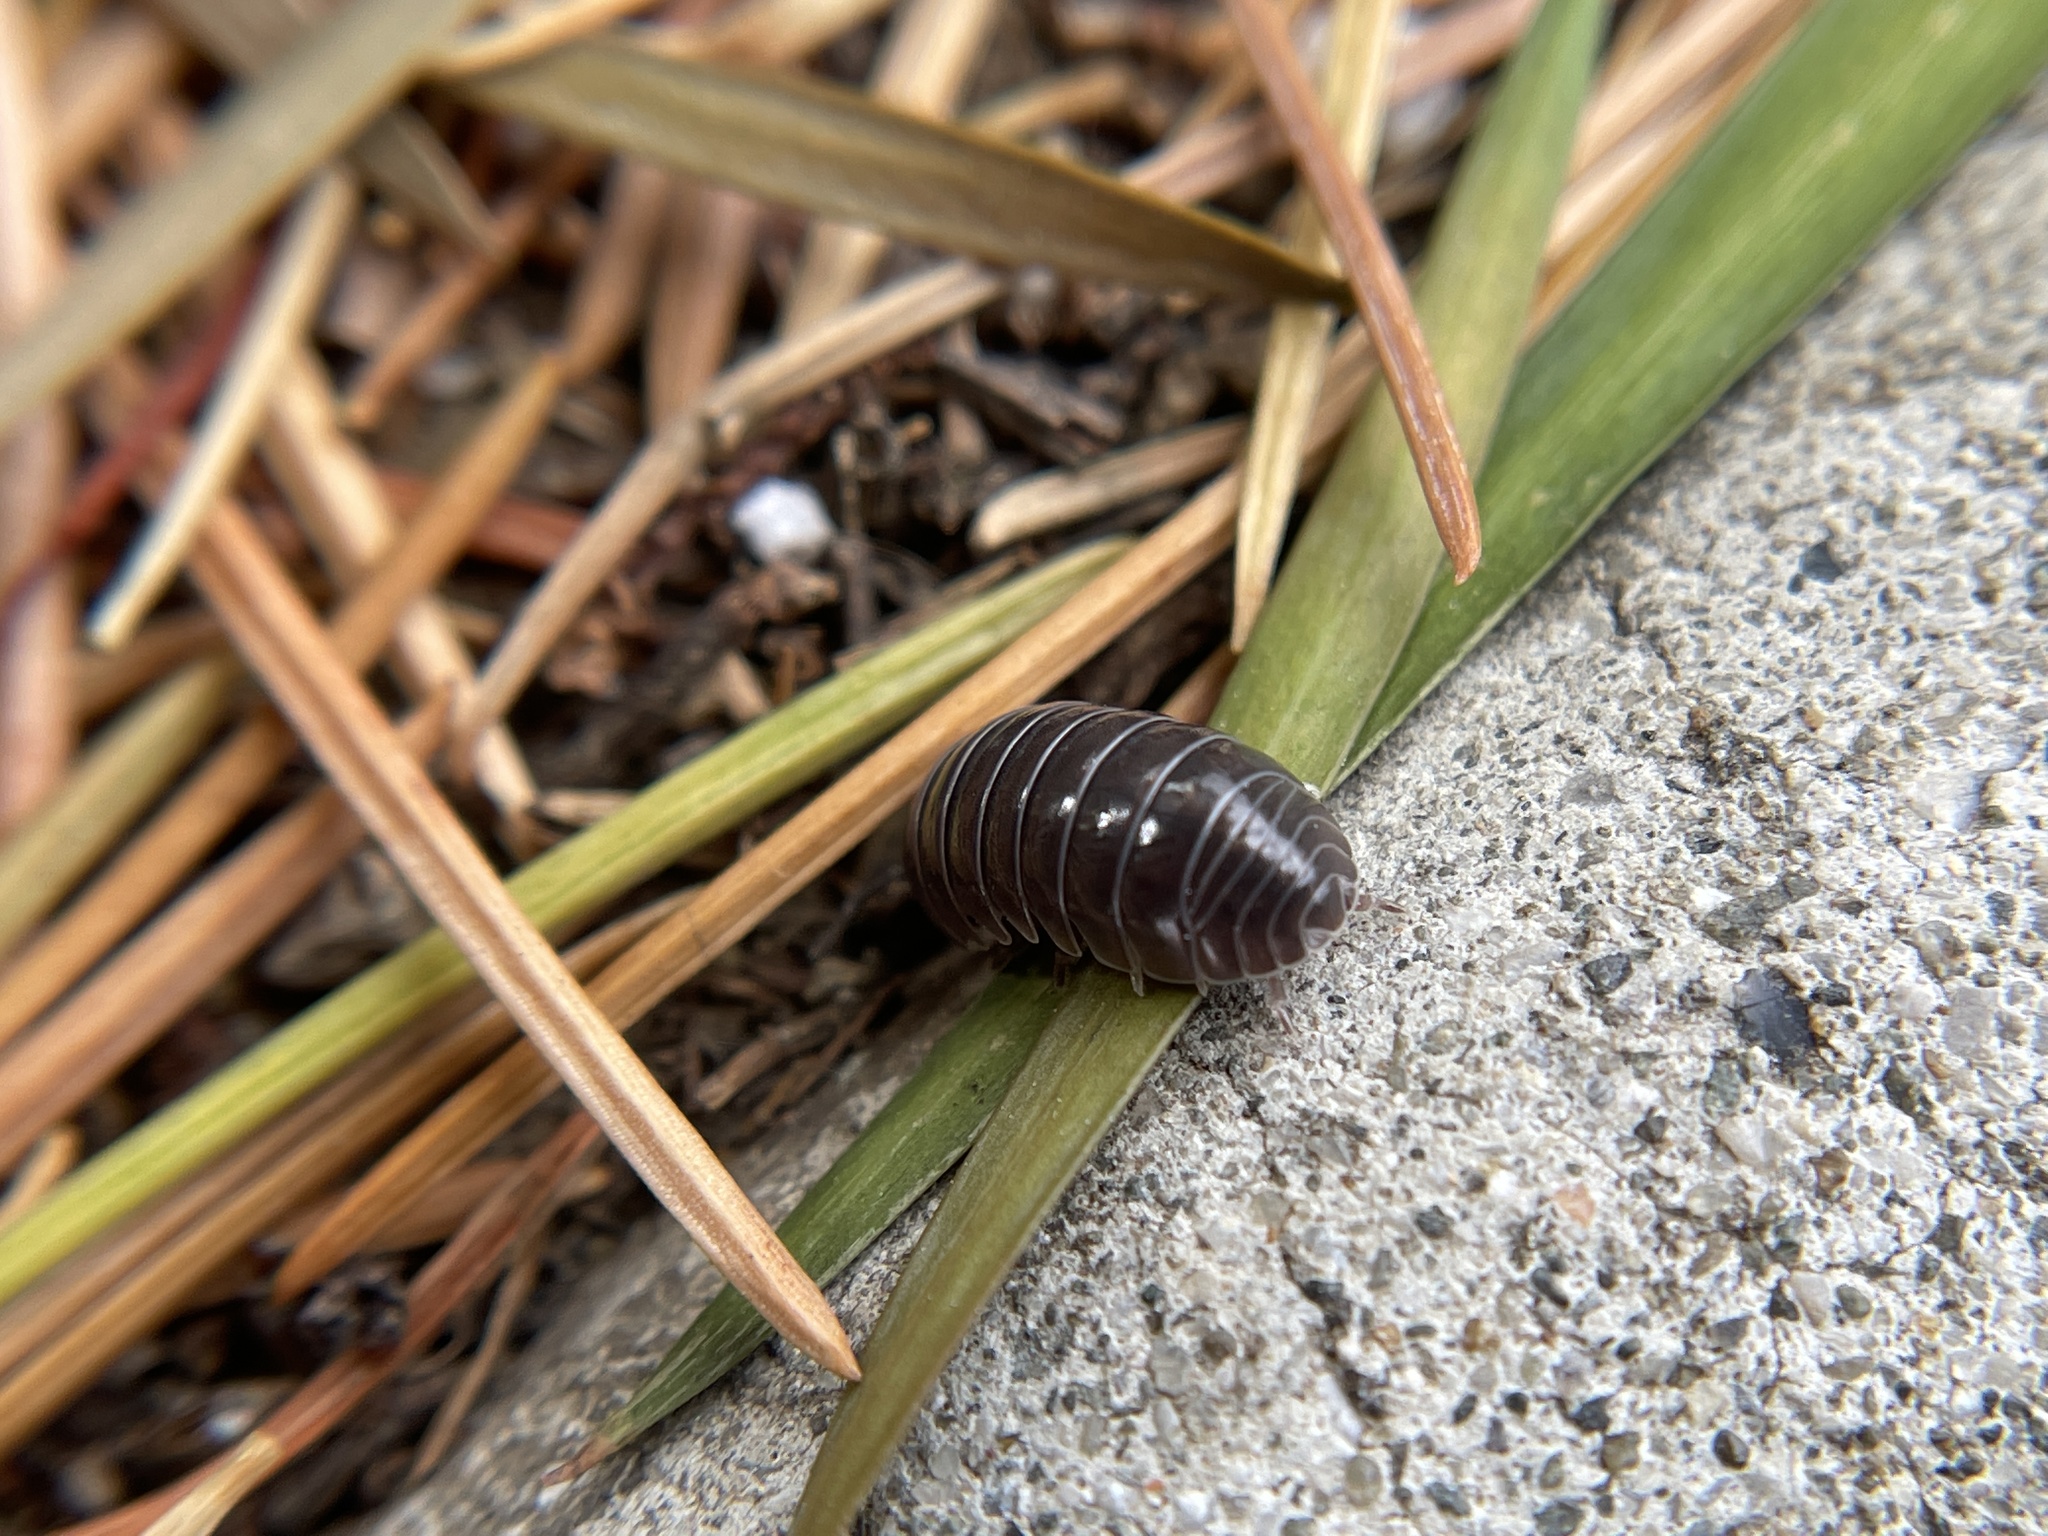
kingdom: Animalia
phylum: Arthropoda
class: Malacostraca
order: Isopoda
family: Armadillidiidae
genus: Armadillidium
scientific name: Armadillidium vulgare
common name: Common pill woodlouse
